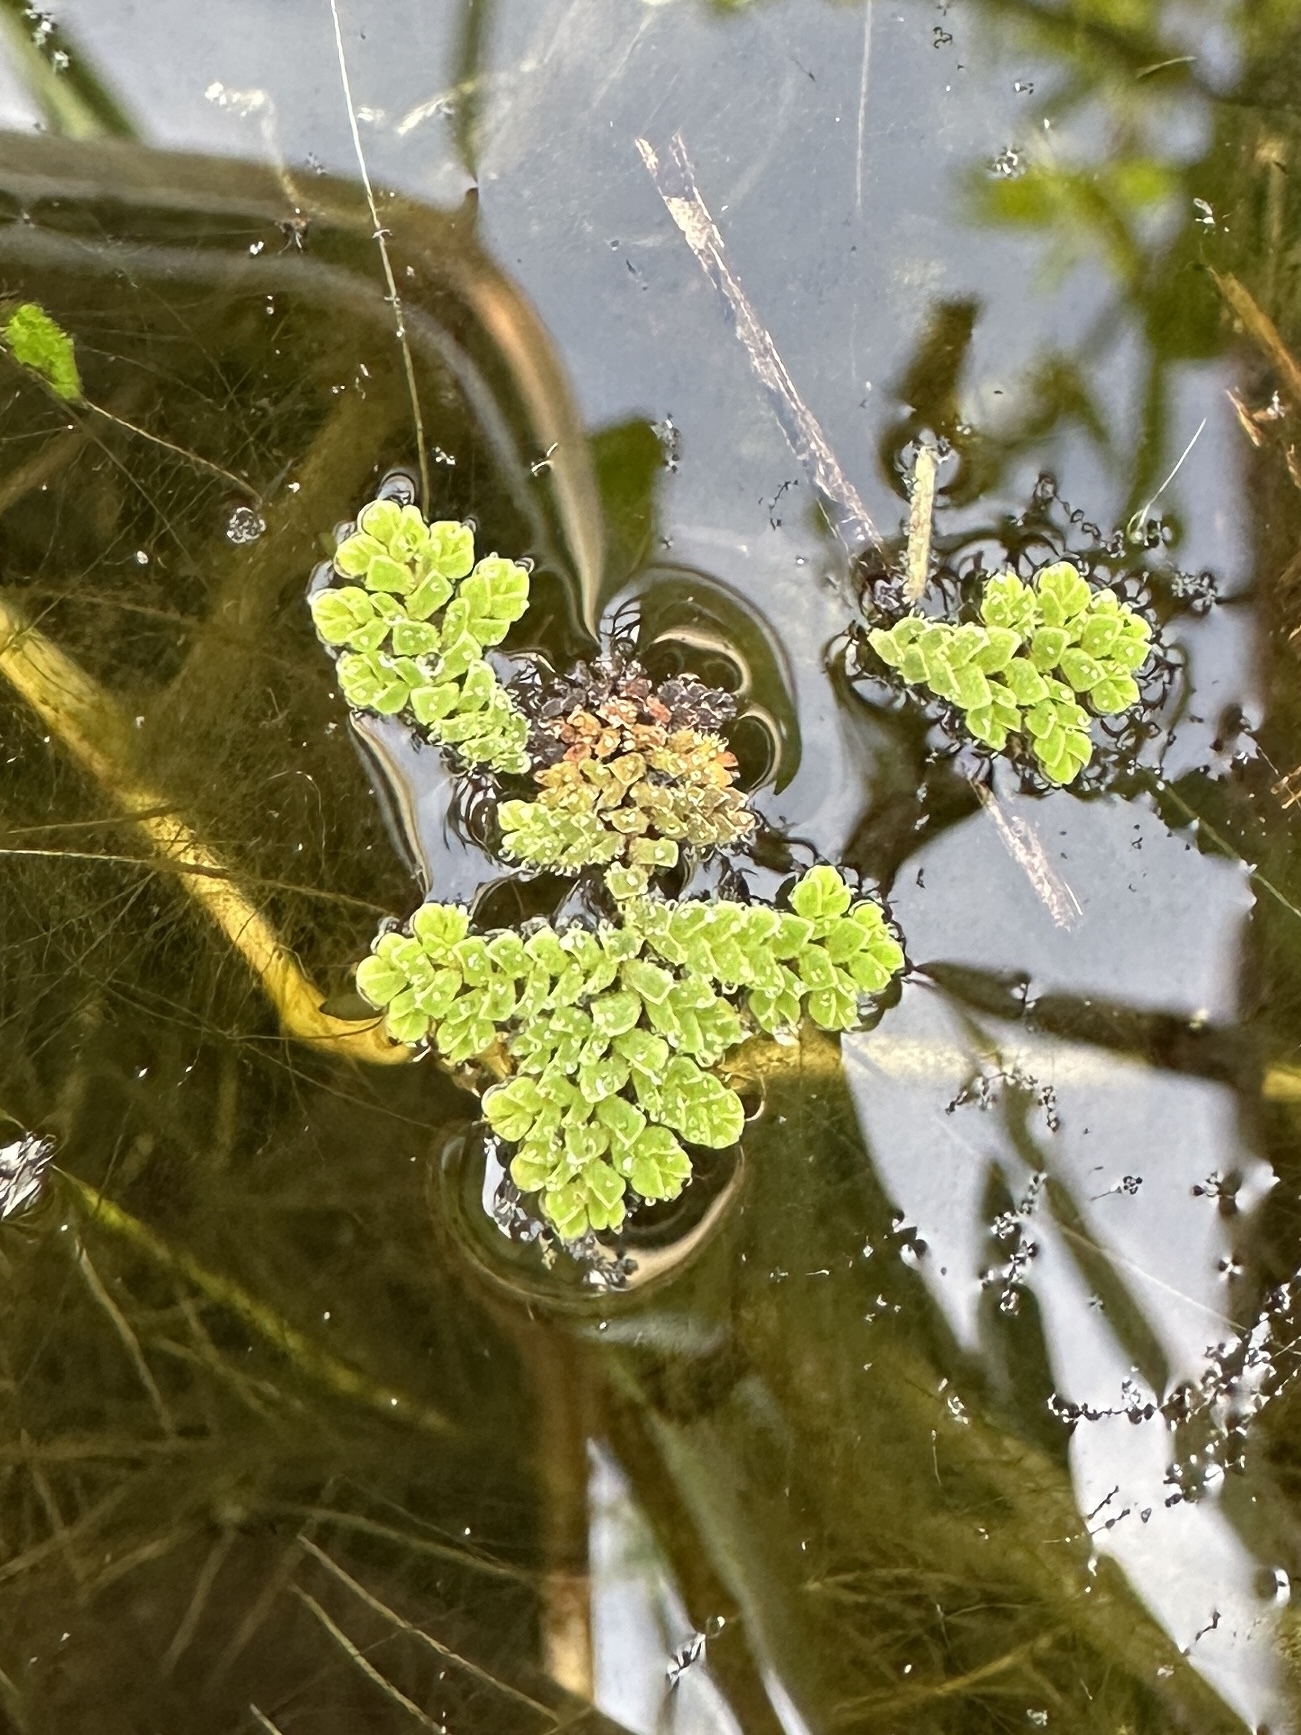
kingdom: Plantae
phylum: Tracheophyta
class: Polypodiopsida
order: Salviniales
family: Salviniaceae
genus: Azolla
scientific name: Azolla pinnata
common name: Ferny azolla
